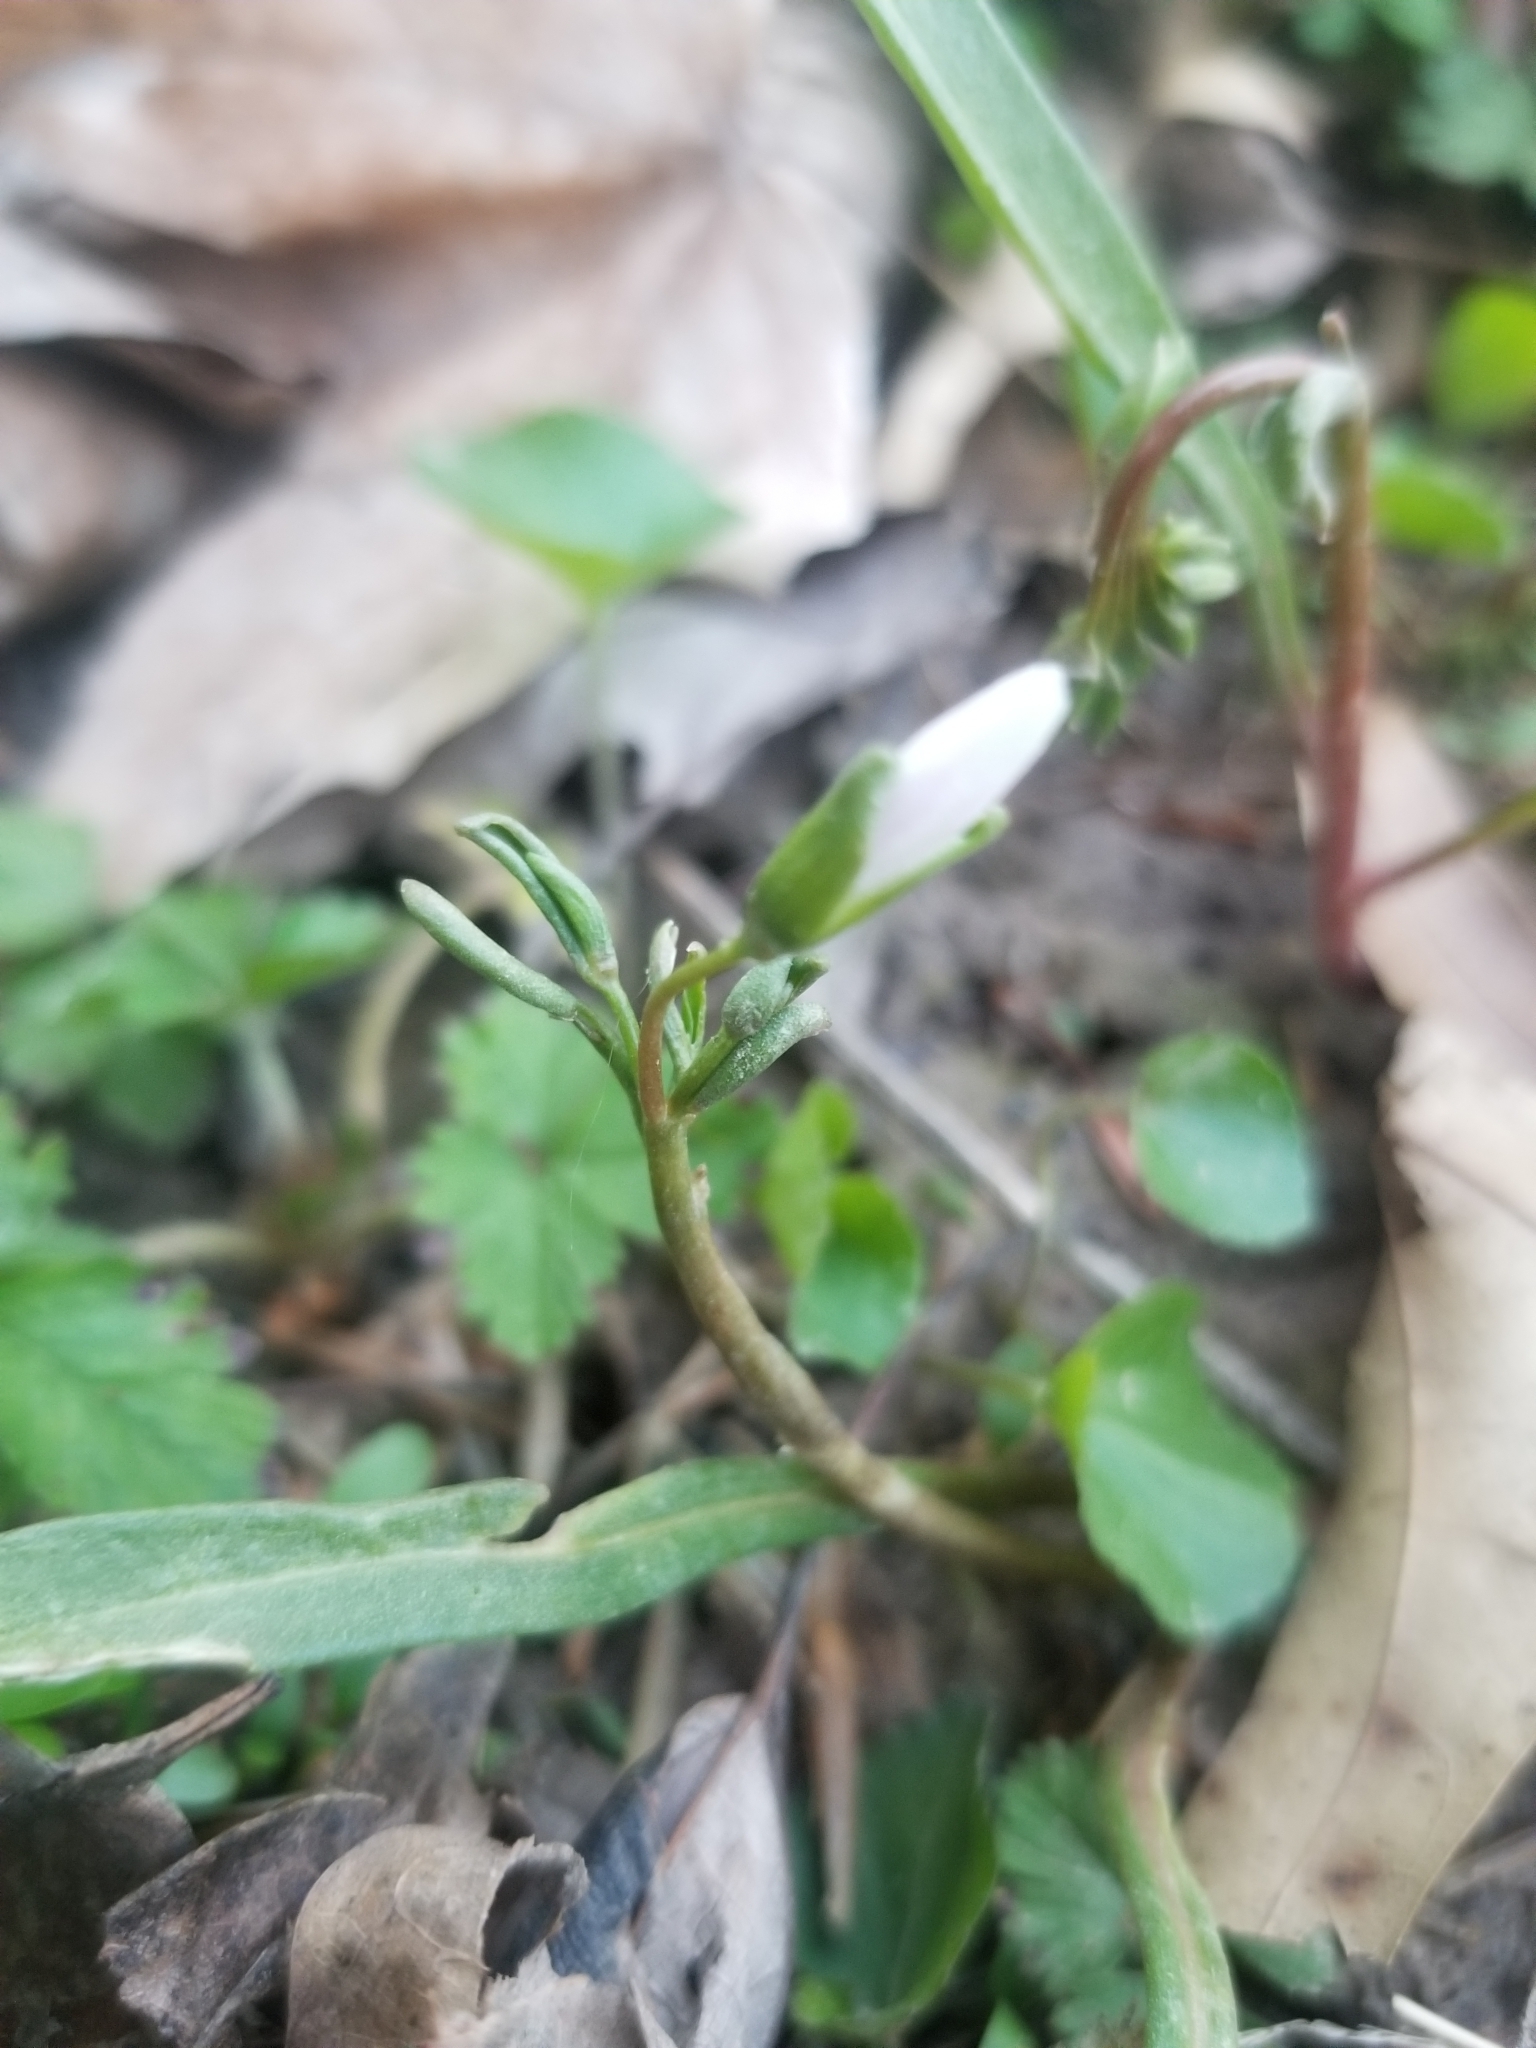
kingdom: Plantae
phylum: Tracheophyta
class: Magnoliopsida
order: Caryophyllales
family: Montiaceae
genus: Claytonia
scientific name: Claytonia virginica
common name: Virginia springbeauty
